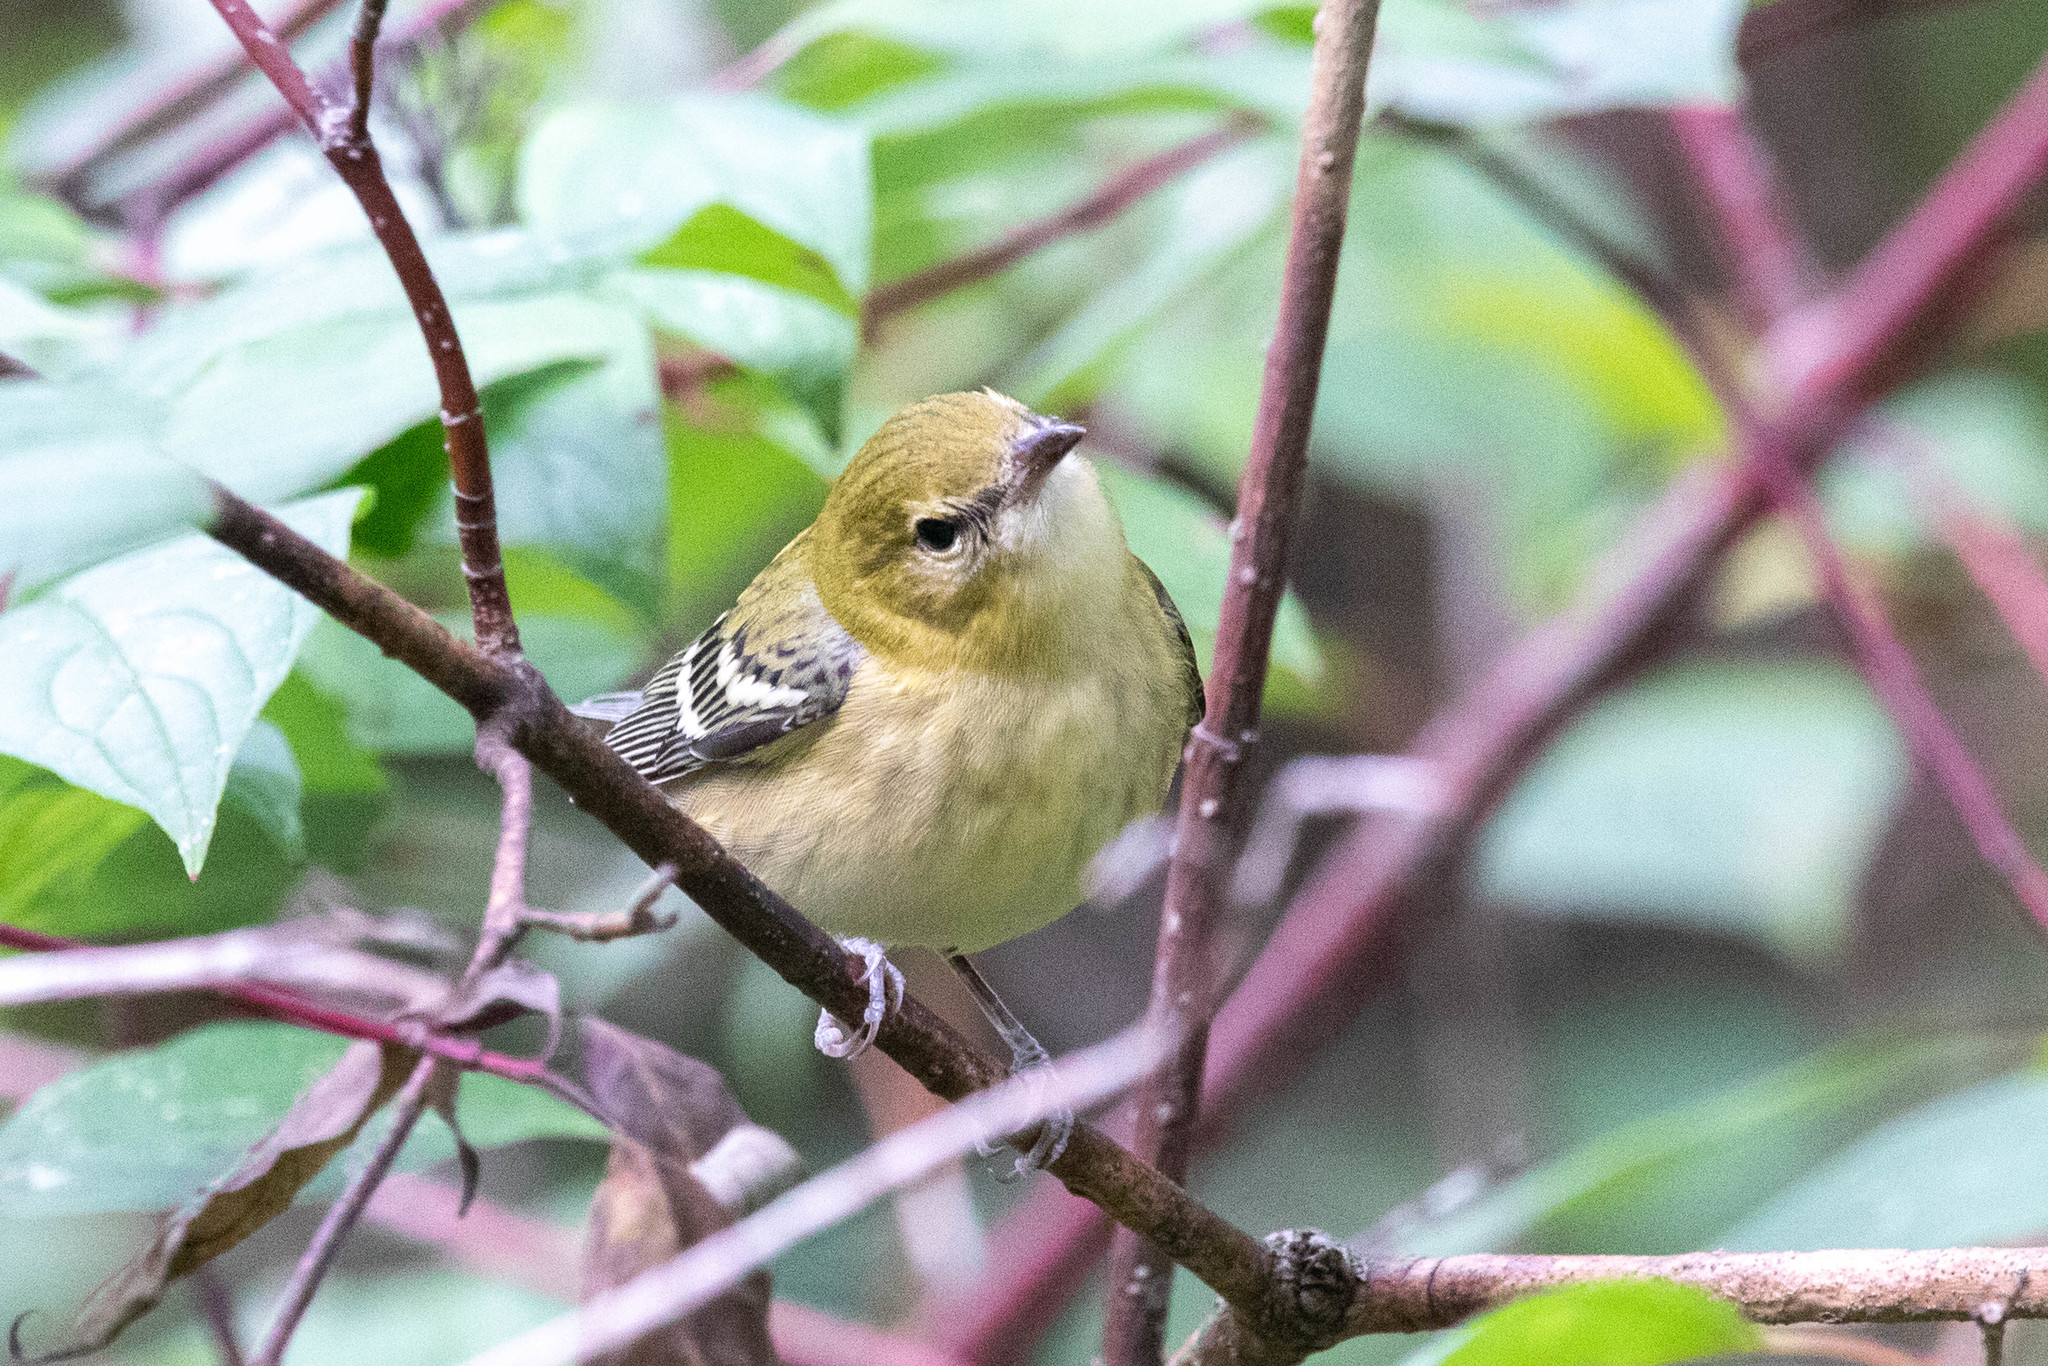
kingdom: Animalia
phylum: Chordata
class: Aves
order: Passeriformes
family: Parulidae
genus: Setophaga
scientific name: Setophaga castanea
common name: Bay-breasted warbler
